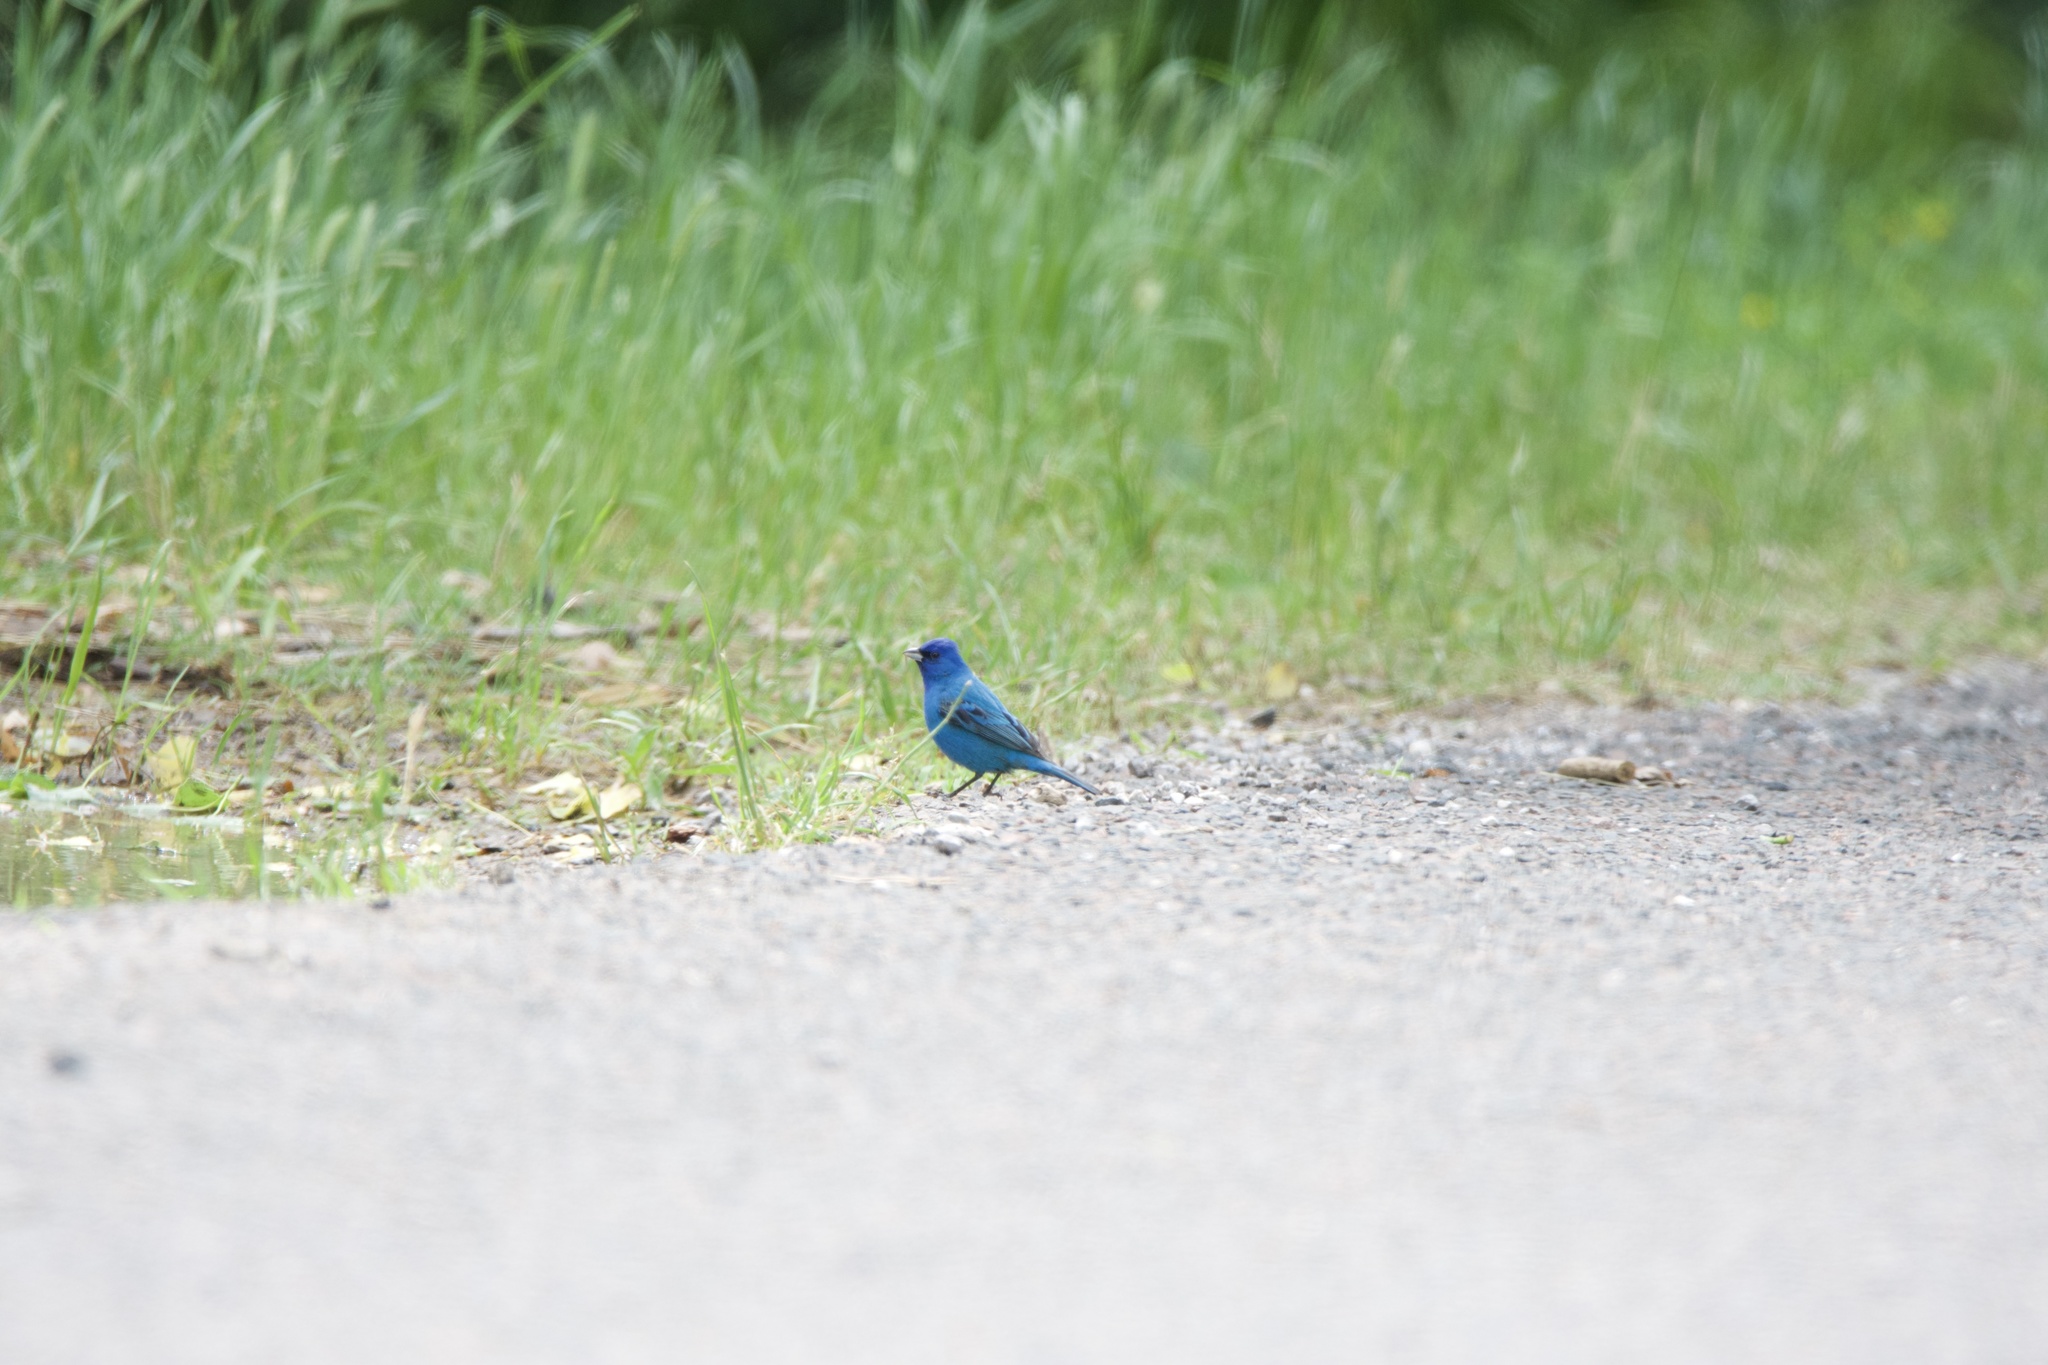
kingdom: Animalia
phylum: Chordata
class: Aves
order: Passeriformes
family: Cardinalidae
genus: Passerina
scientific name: Passerina cyanea
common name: Indigo bunting
